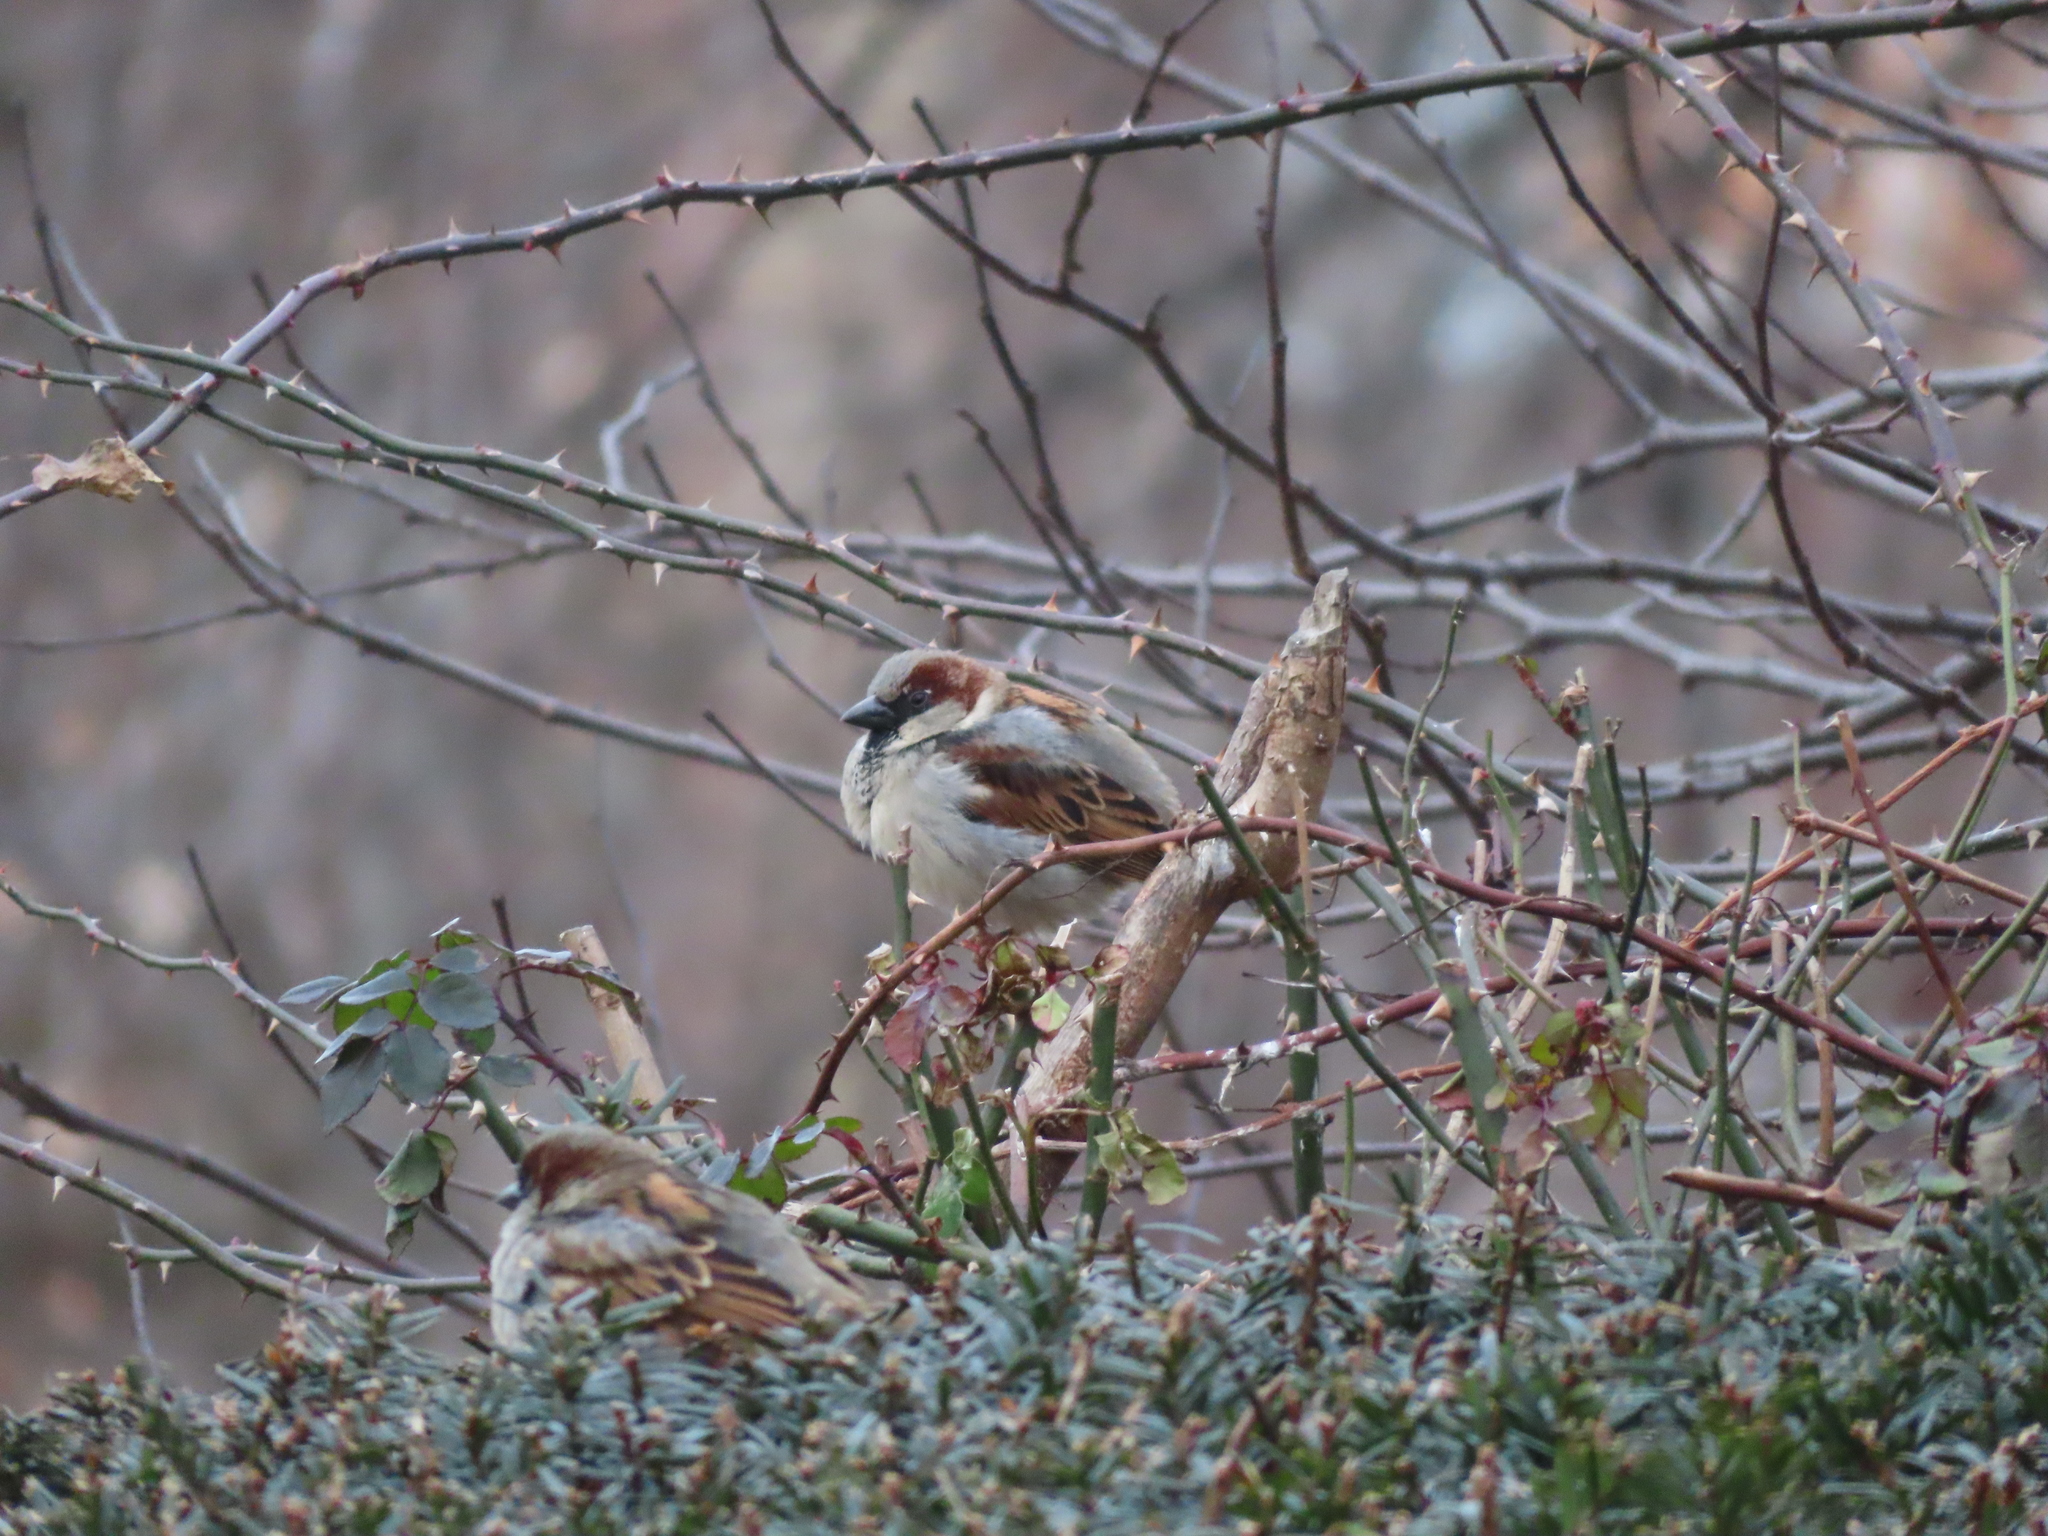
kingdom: Animalia
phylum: Chordata
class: Aves
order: Passeriformes
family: Passeridae
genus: Passer
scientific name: Passer domesticus
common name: House sparrow
